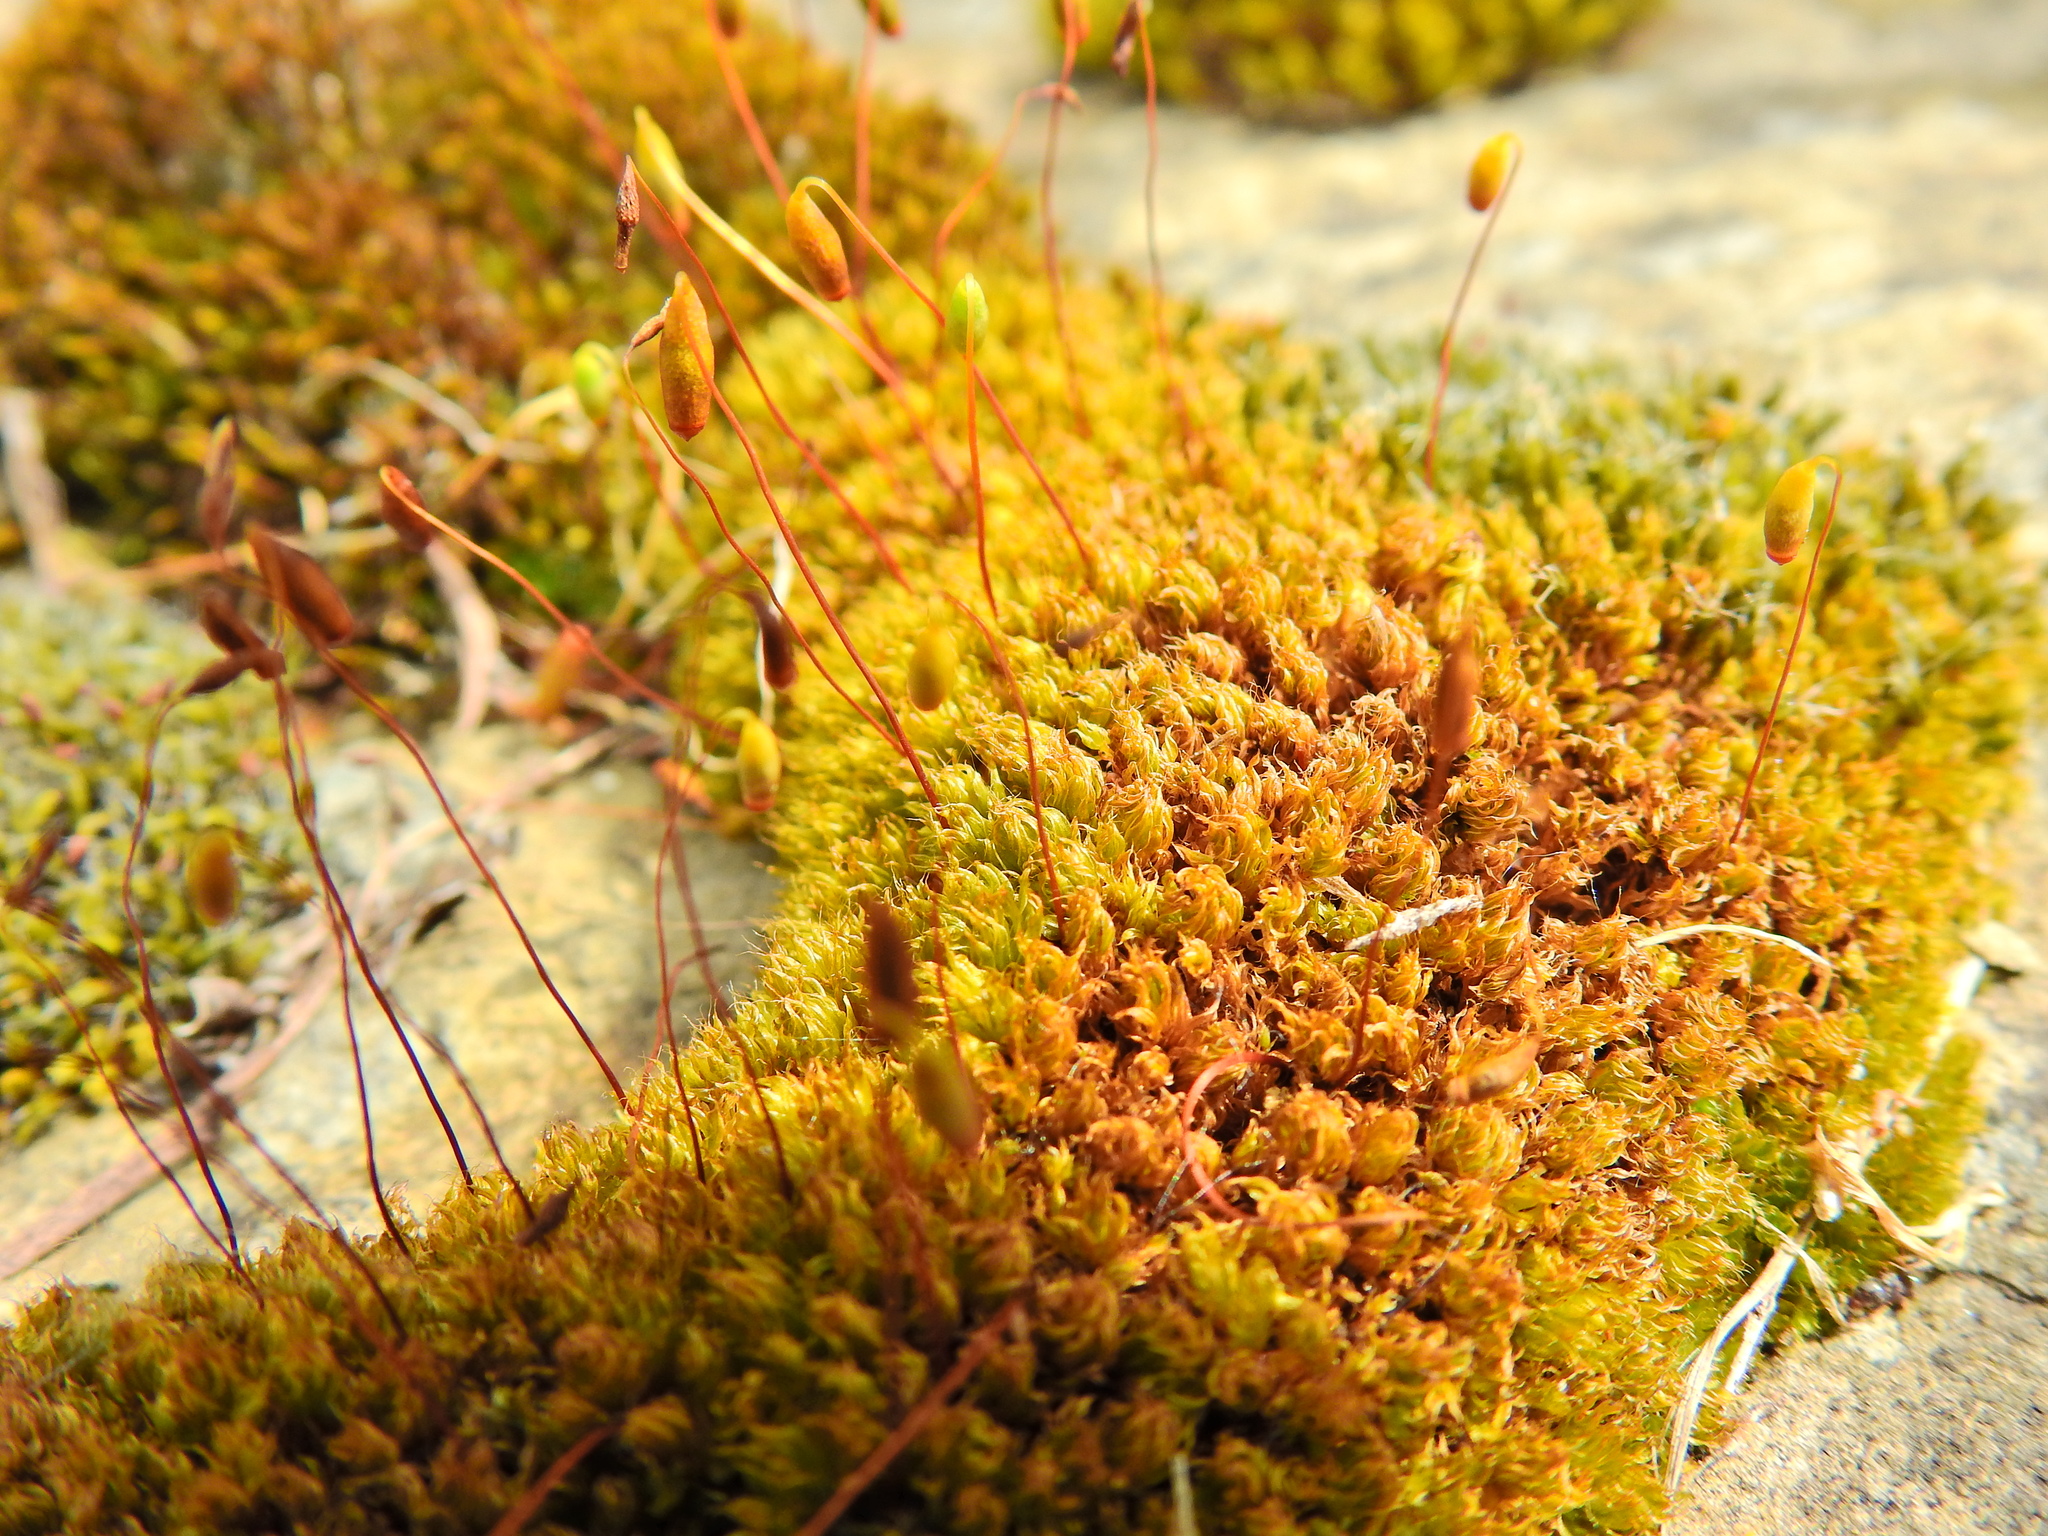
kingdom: Plantae
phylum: Bryophyta
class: Bryopsida
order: Bryales
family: Bryaceae
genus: Rosulabryum
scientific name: Rosulabryum capillare
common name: Capillary thread-moss
